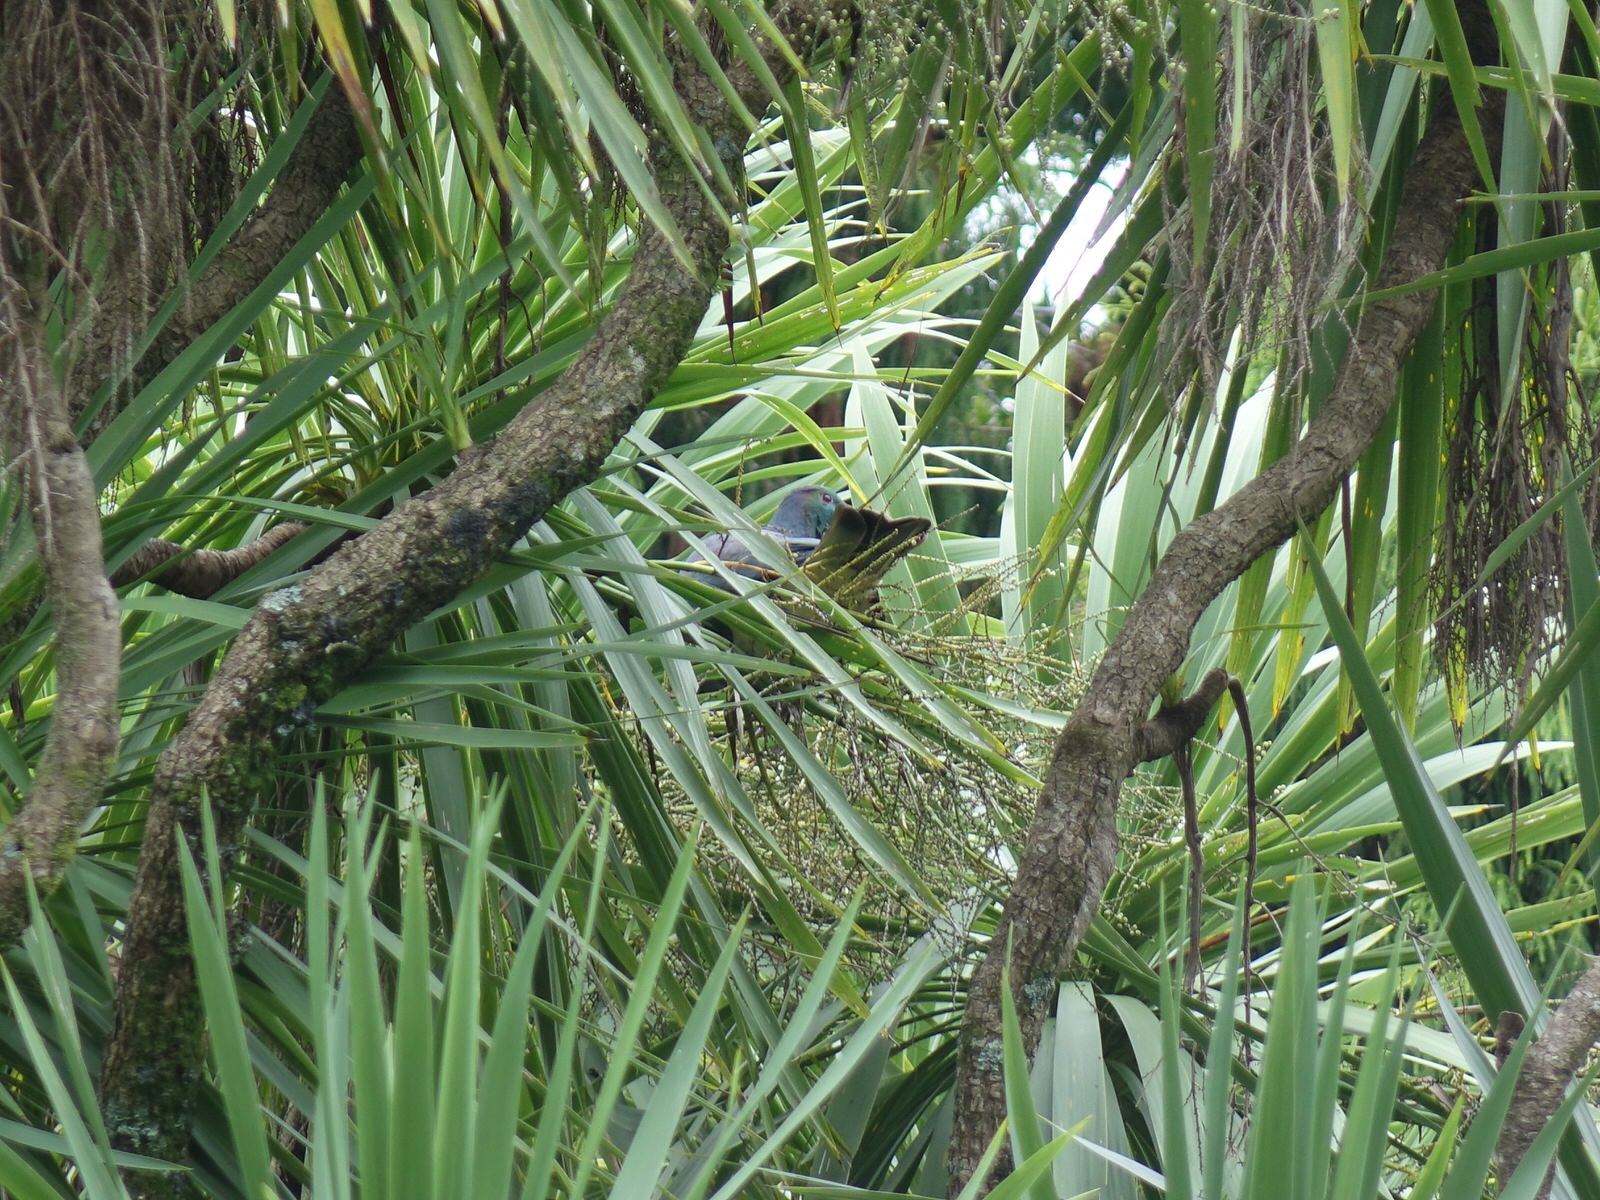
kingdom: Animalia
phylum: Chordata
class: Aves
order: Columbiformes
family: Columbidae
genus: Hemiphaga
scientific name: Hemiphaga novaeseelandiae
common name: New zealand pigeon
